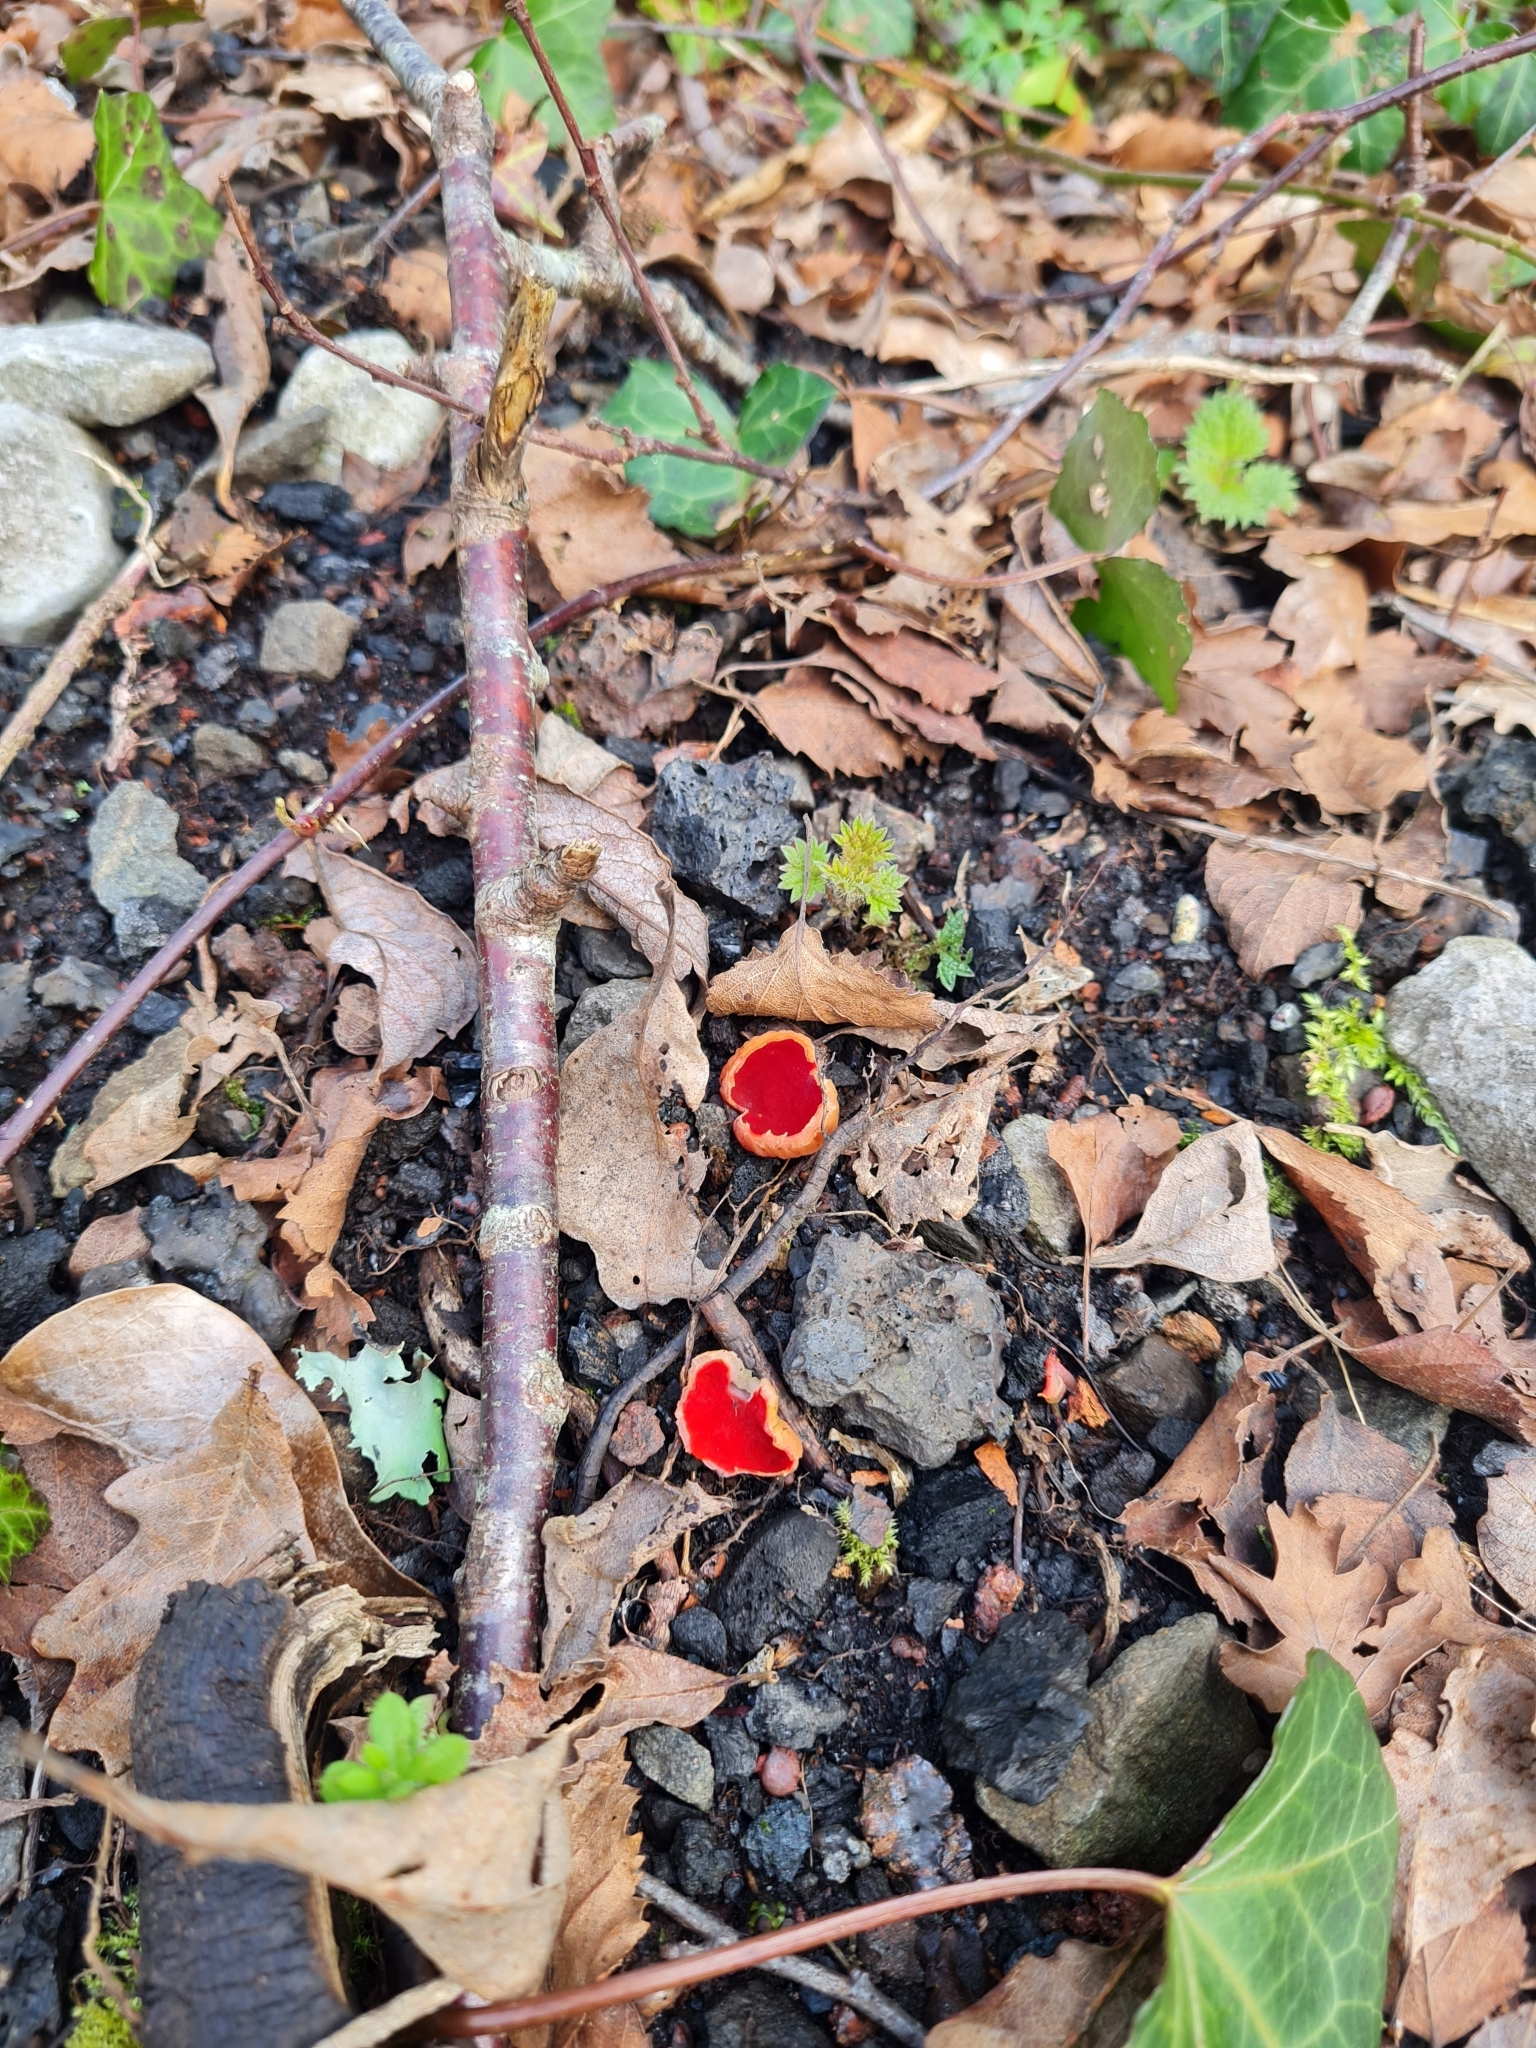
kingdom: Fungi
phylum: Ascomycota
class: Pezizomycetes
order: Pezizales
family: Sarcoscyphaceae
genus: Sarcoscypha
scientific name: Sarcoscypha
